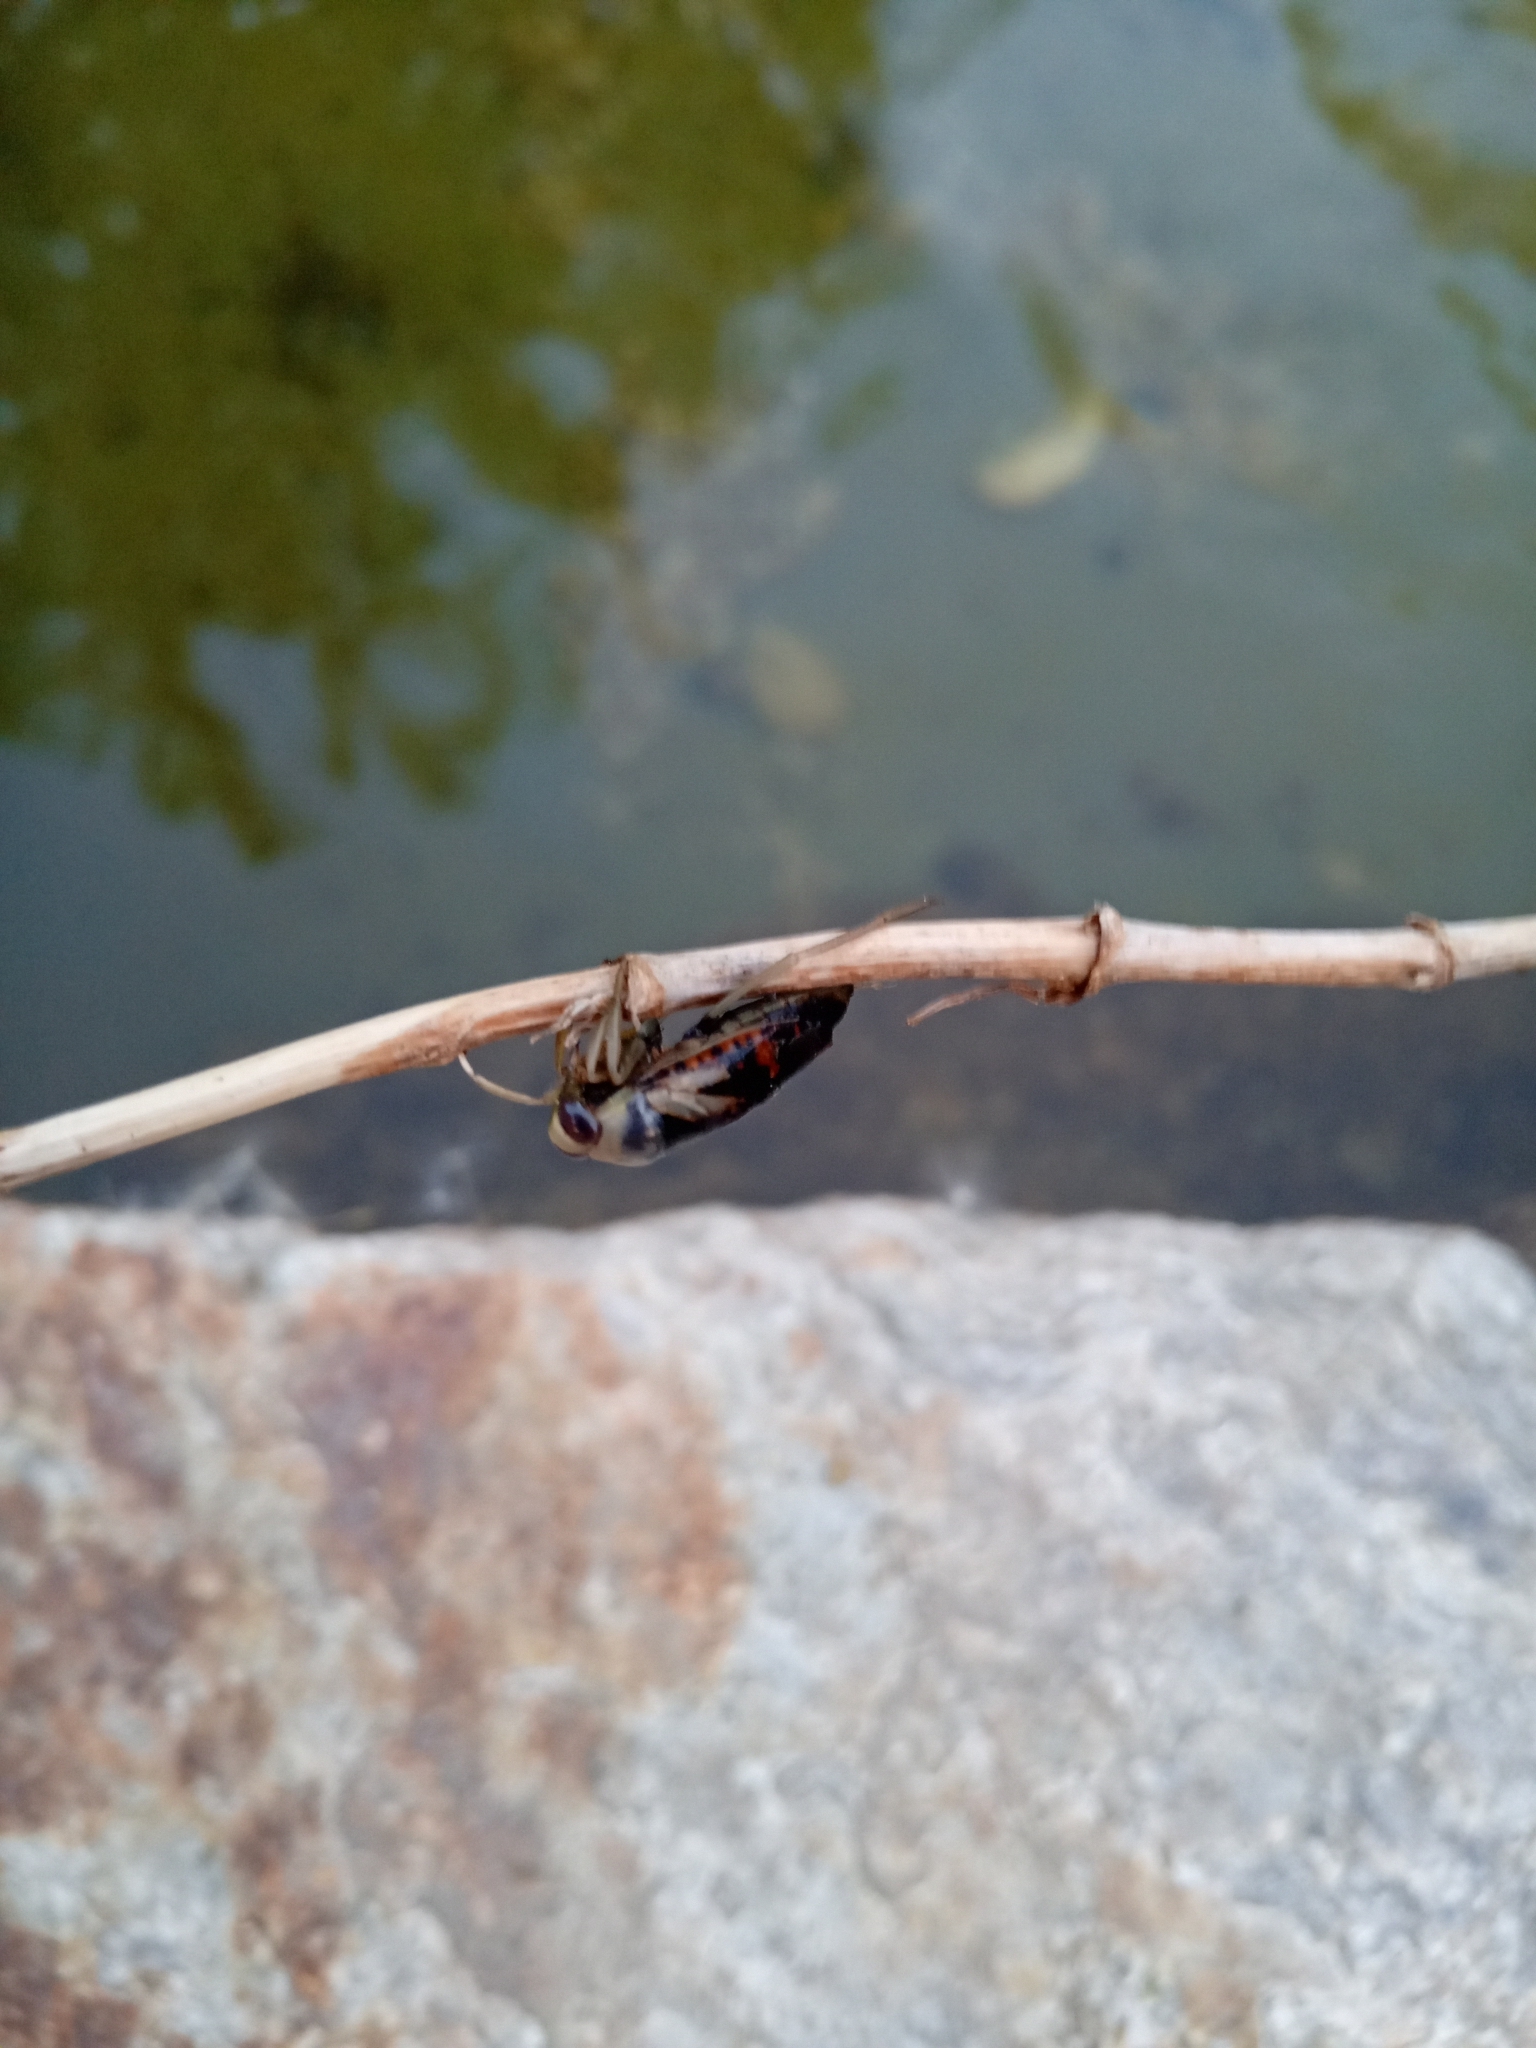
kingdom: Animalia
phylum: Arthropoda
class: Insecta
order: Hemiptera
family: Notonectidae
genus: Notonecta
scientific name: Notonecta maculata
